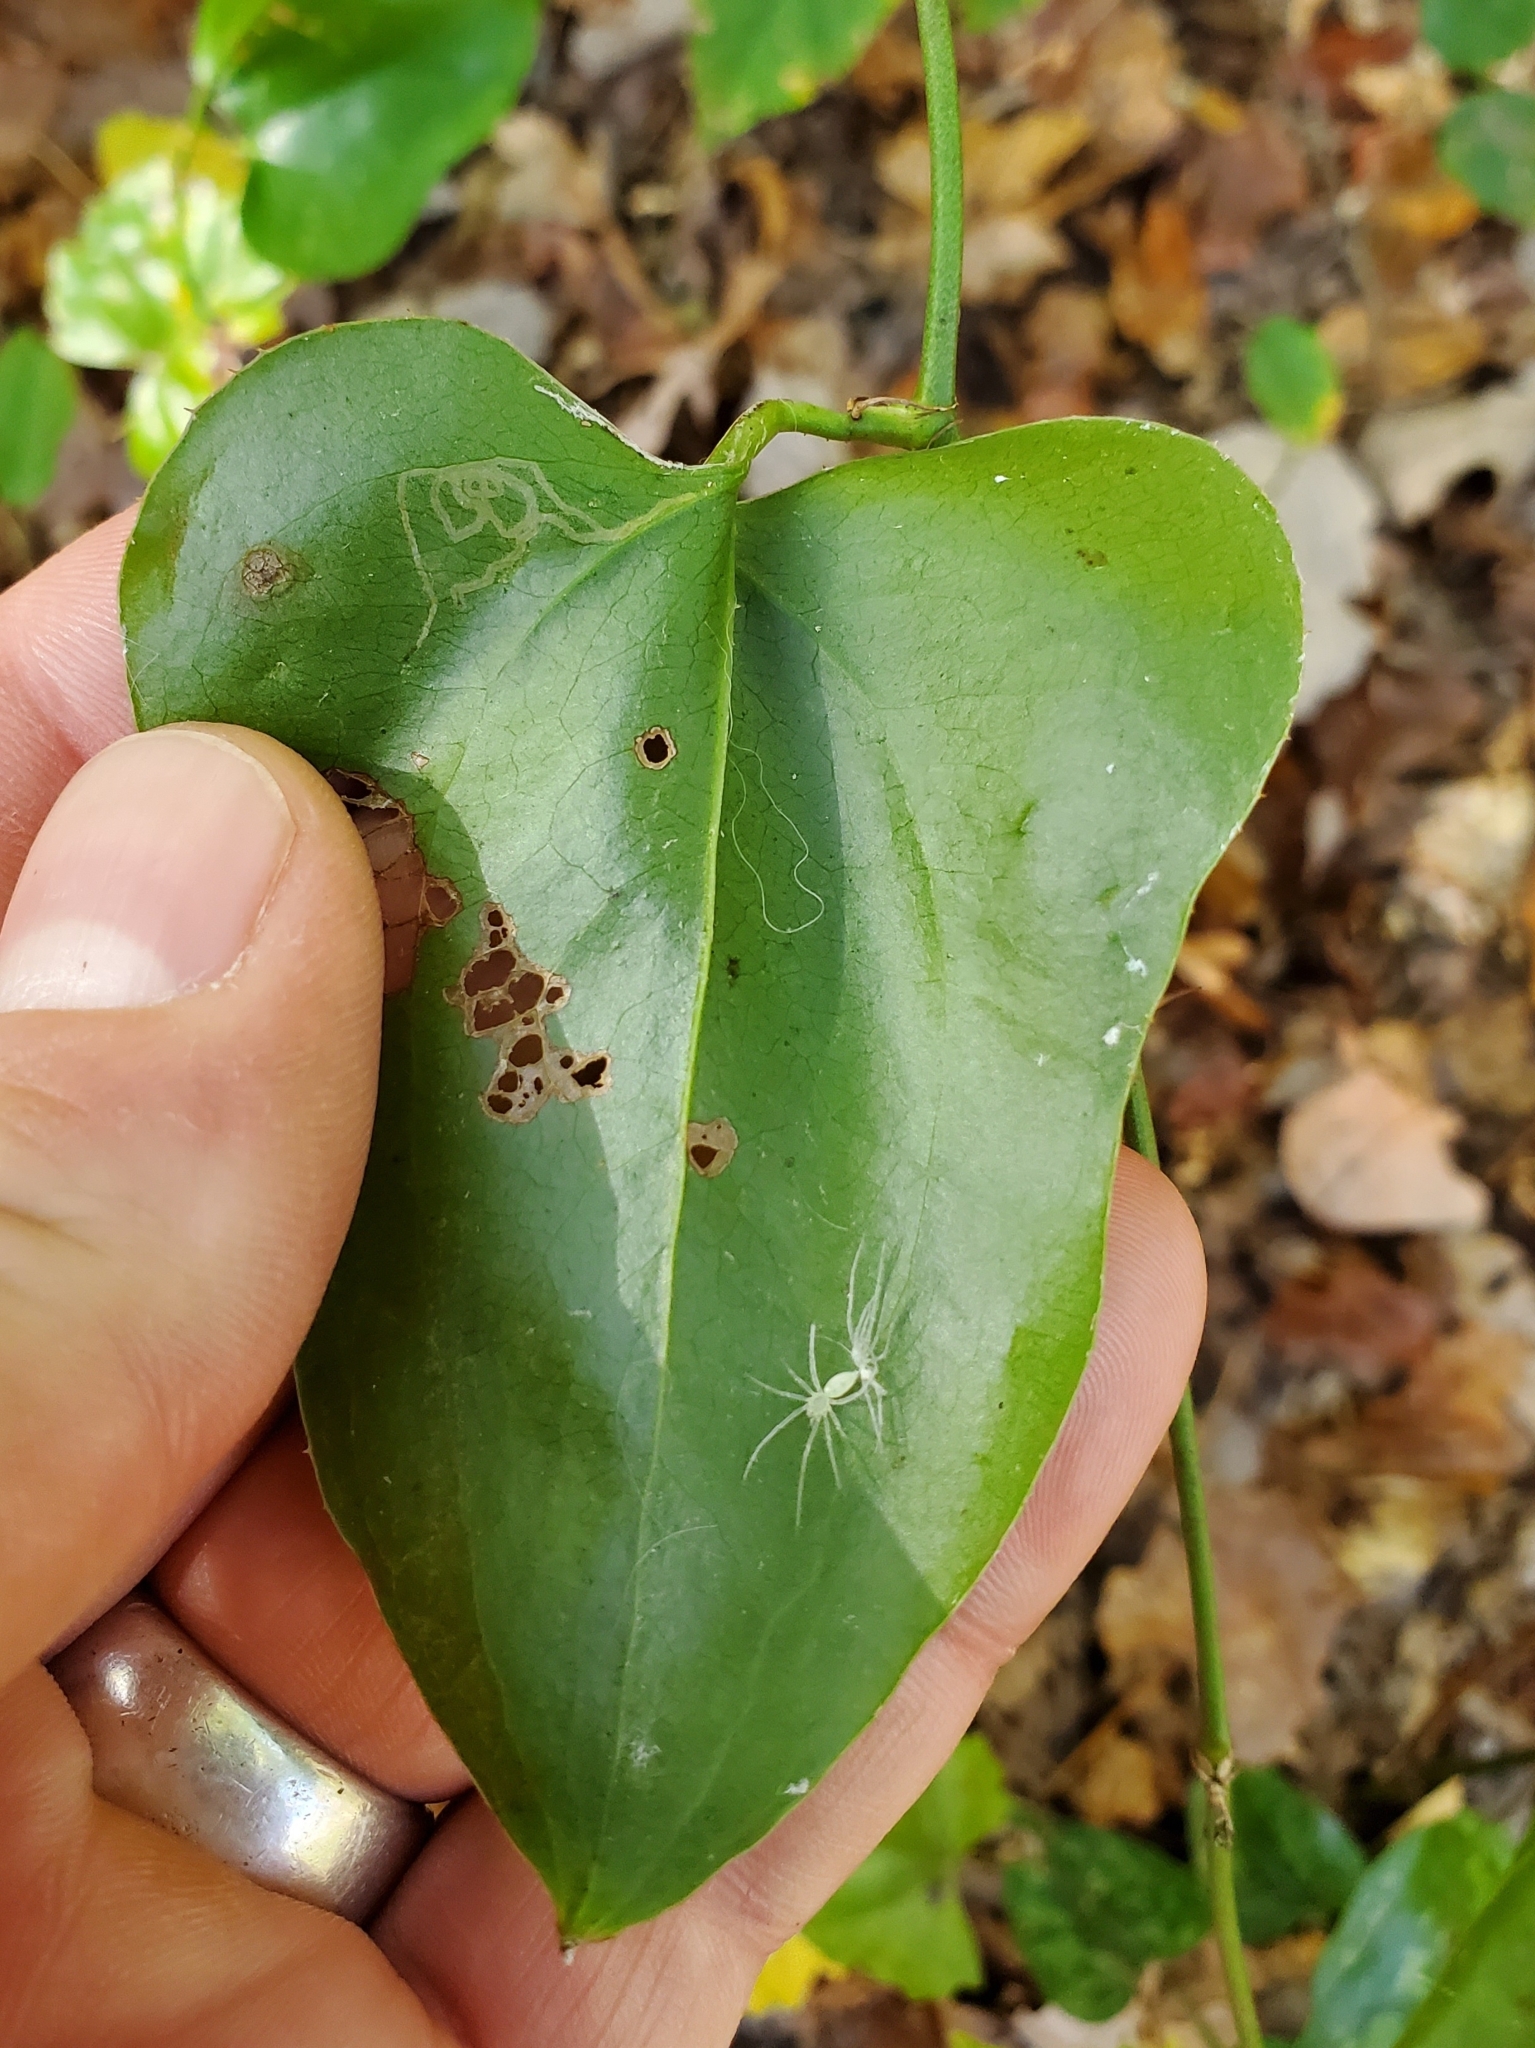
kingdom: Plantae
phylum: Tracheophyta
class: Liliopsida
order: Liliales
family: Smilacaceae
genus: Smilax
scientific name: Smilax bona-nox
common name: Catbrier
